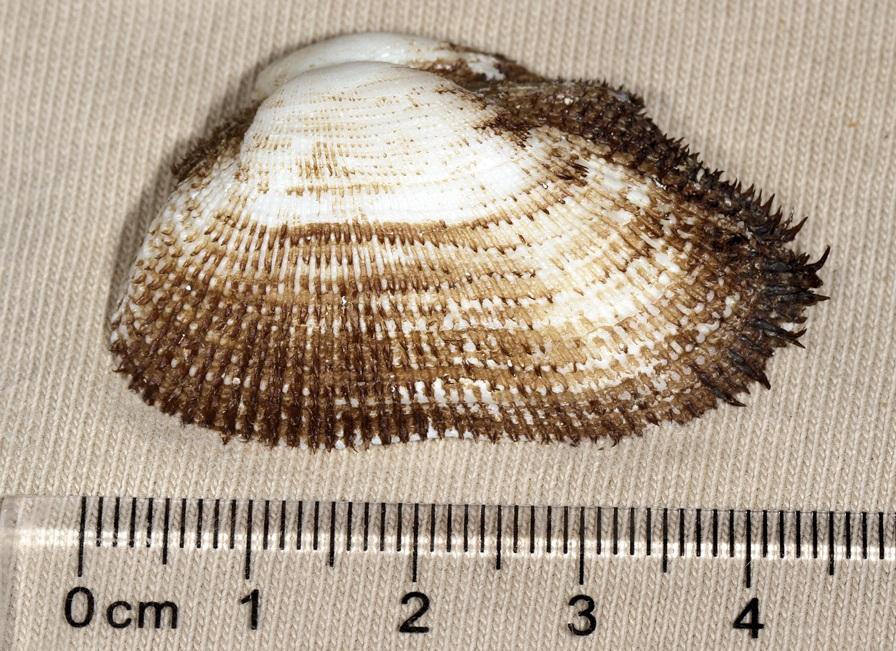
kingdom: Animalia
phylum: Mollusca
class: Bivalvia
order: Arcida
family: Arcidae
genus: Barbatia
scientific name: Barbatia foliata
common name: Leafy ark
